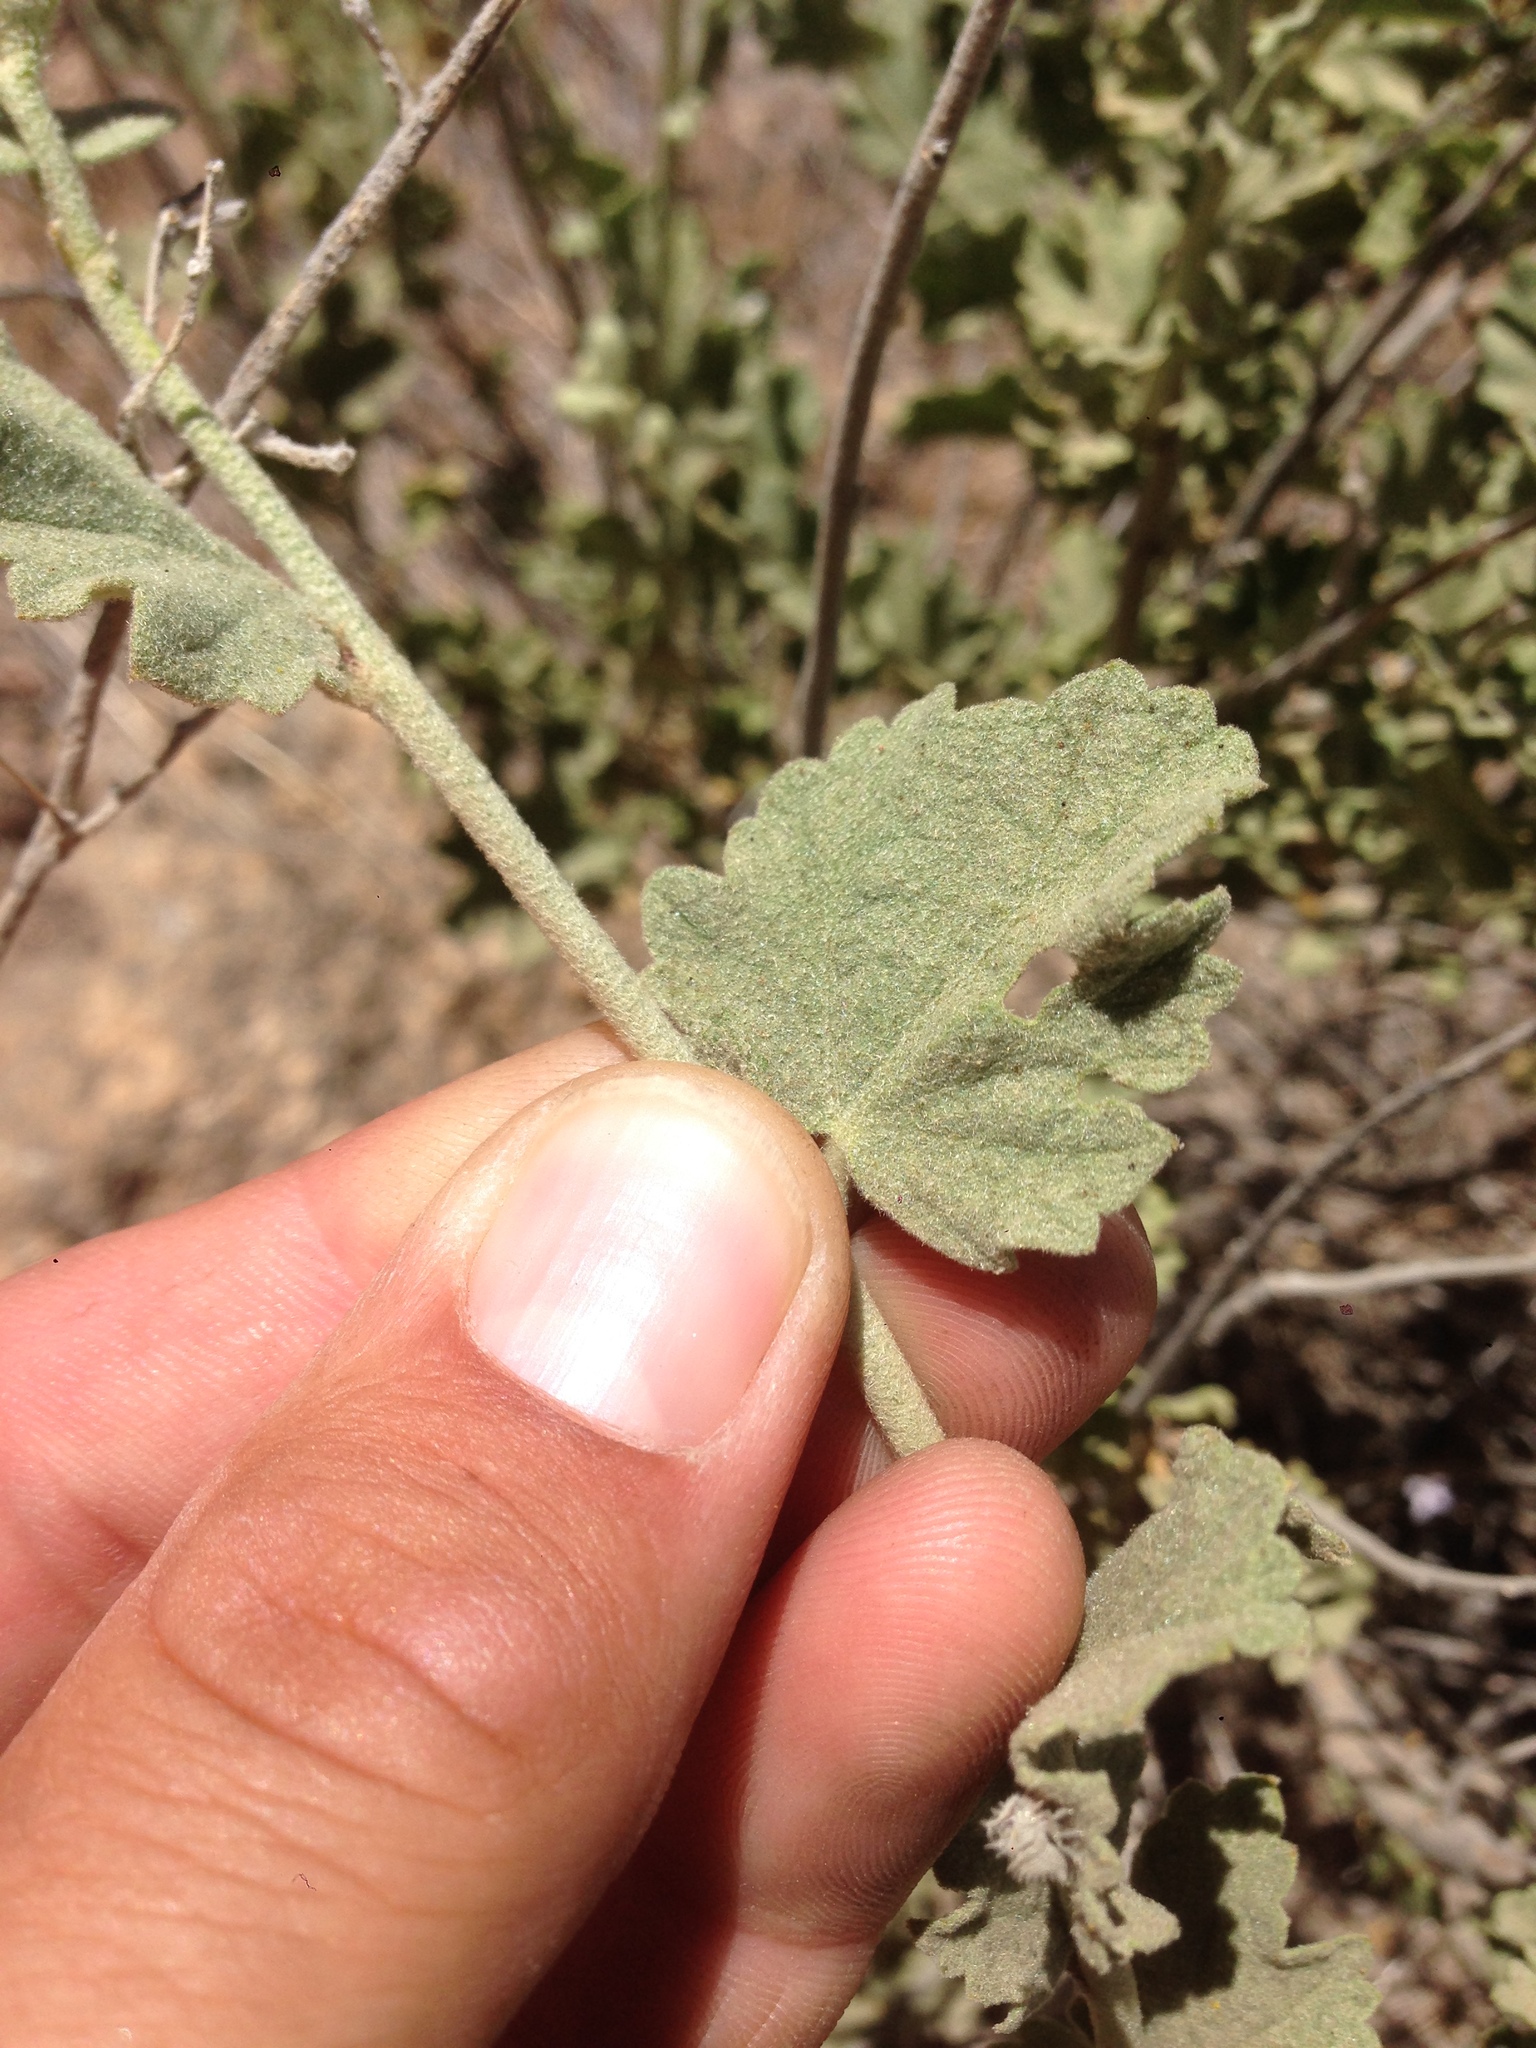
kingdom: Plantae
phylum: Tracheophyta
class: Magnoliopsida
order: Malvales
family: Malvaceae
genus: Malacothamnus
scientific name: Malacothamnus fremontii
